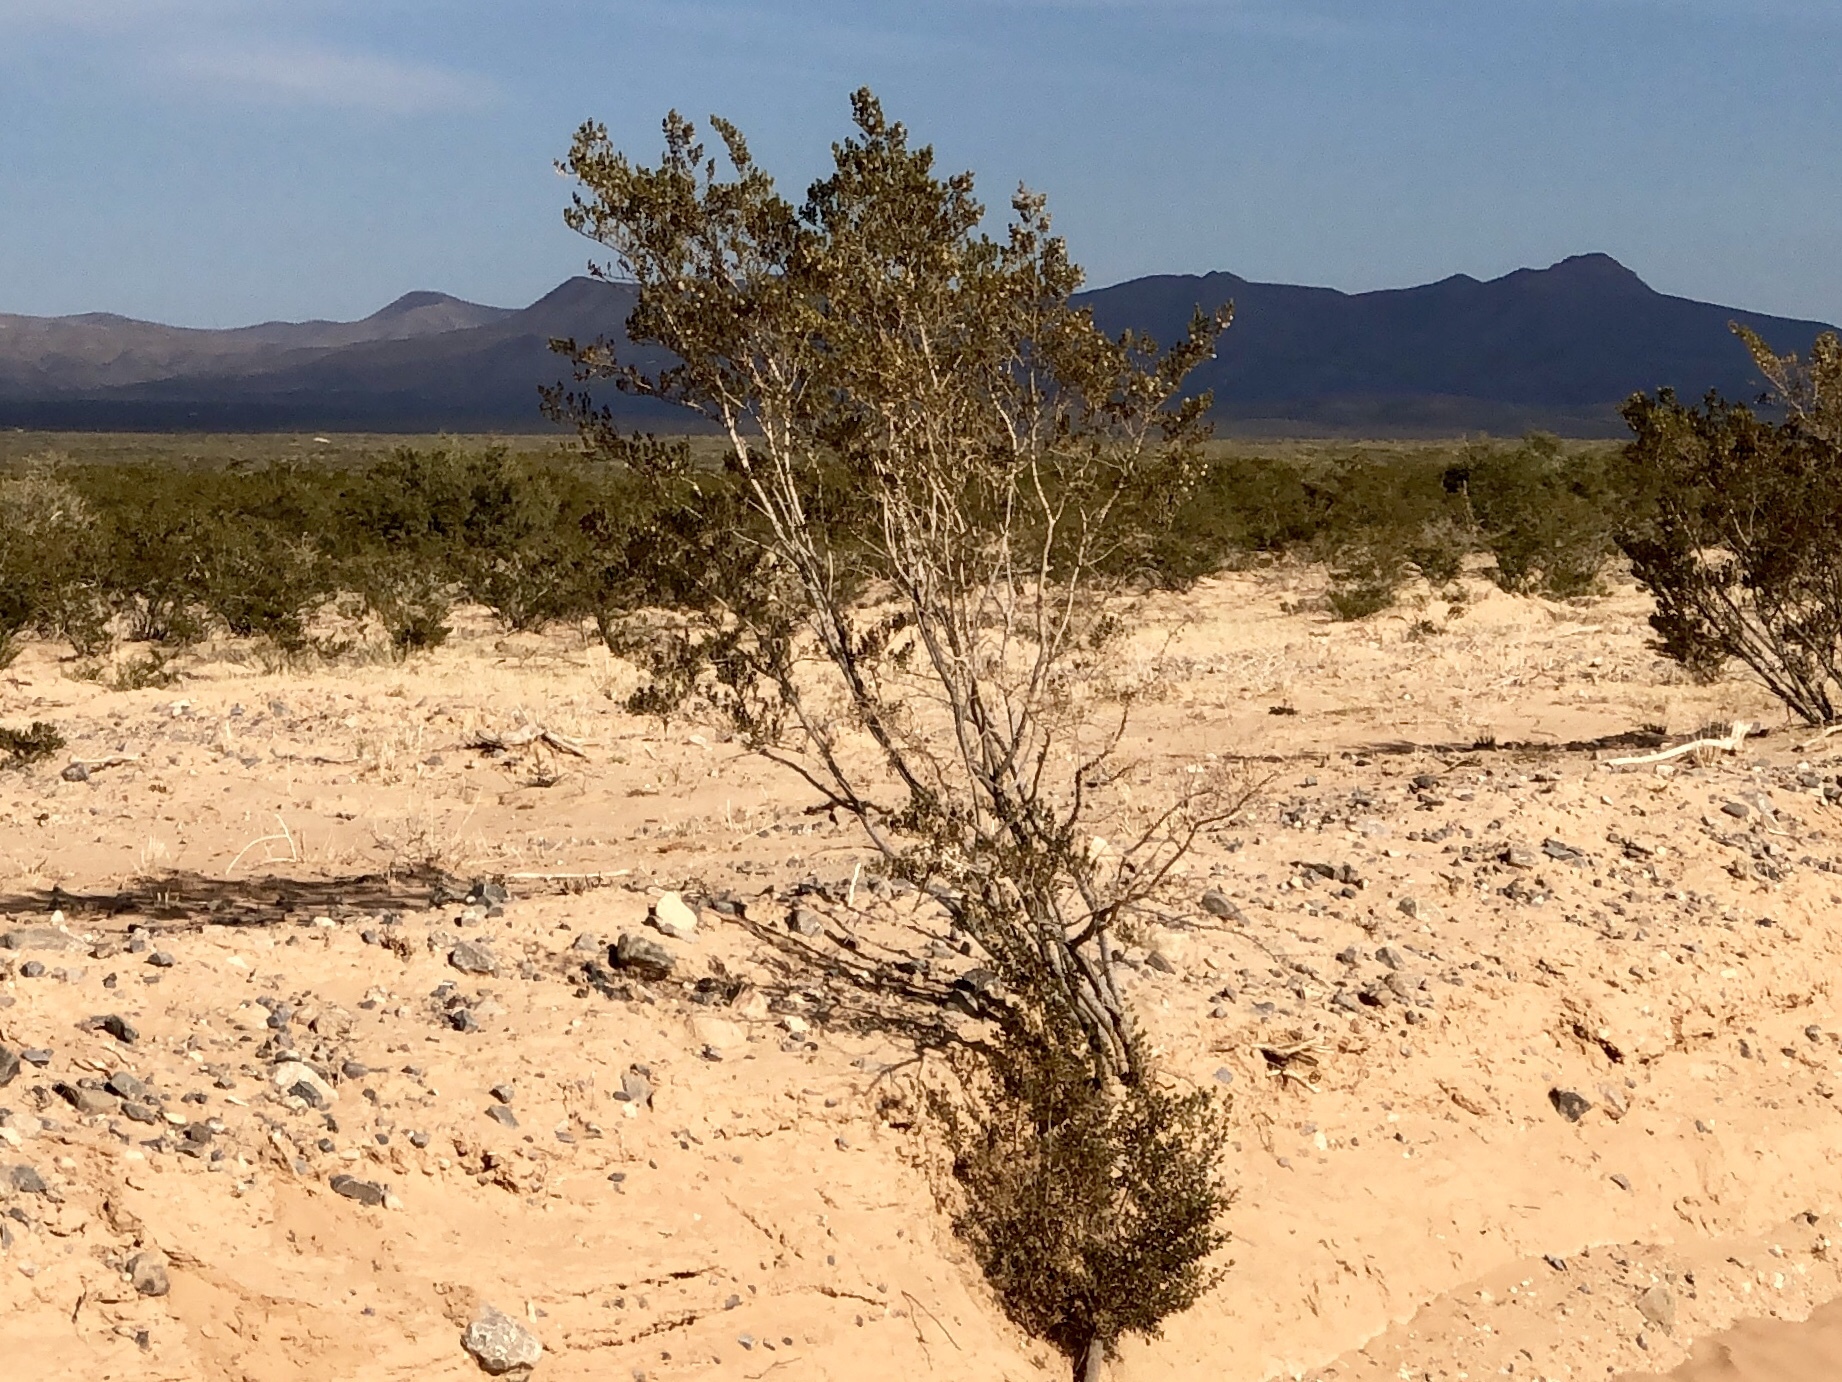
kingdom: Plantae
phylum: Tracheophyta
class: Magnoliopsida
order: Zygophyllales
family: Zygophyllaceae
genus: Larrea
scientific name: Larrea tridentata
